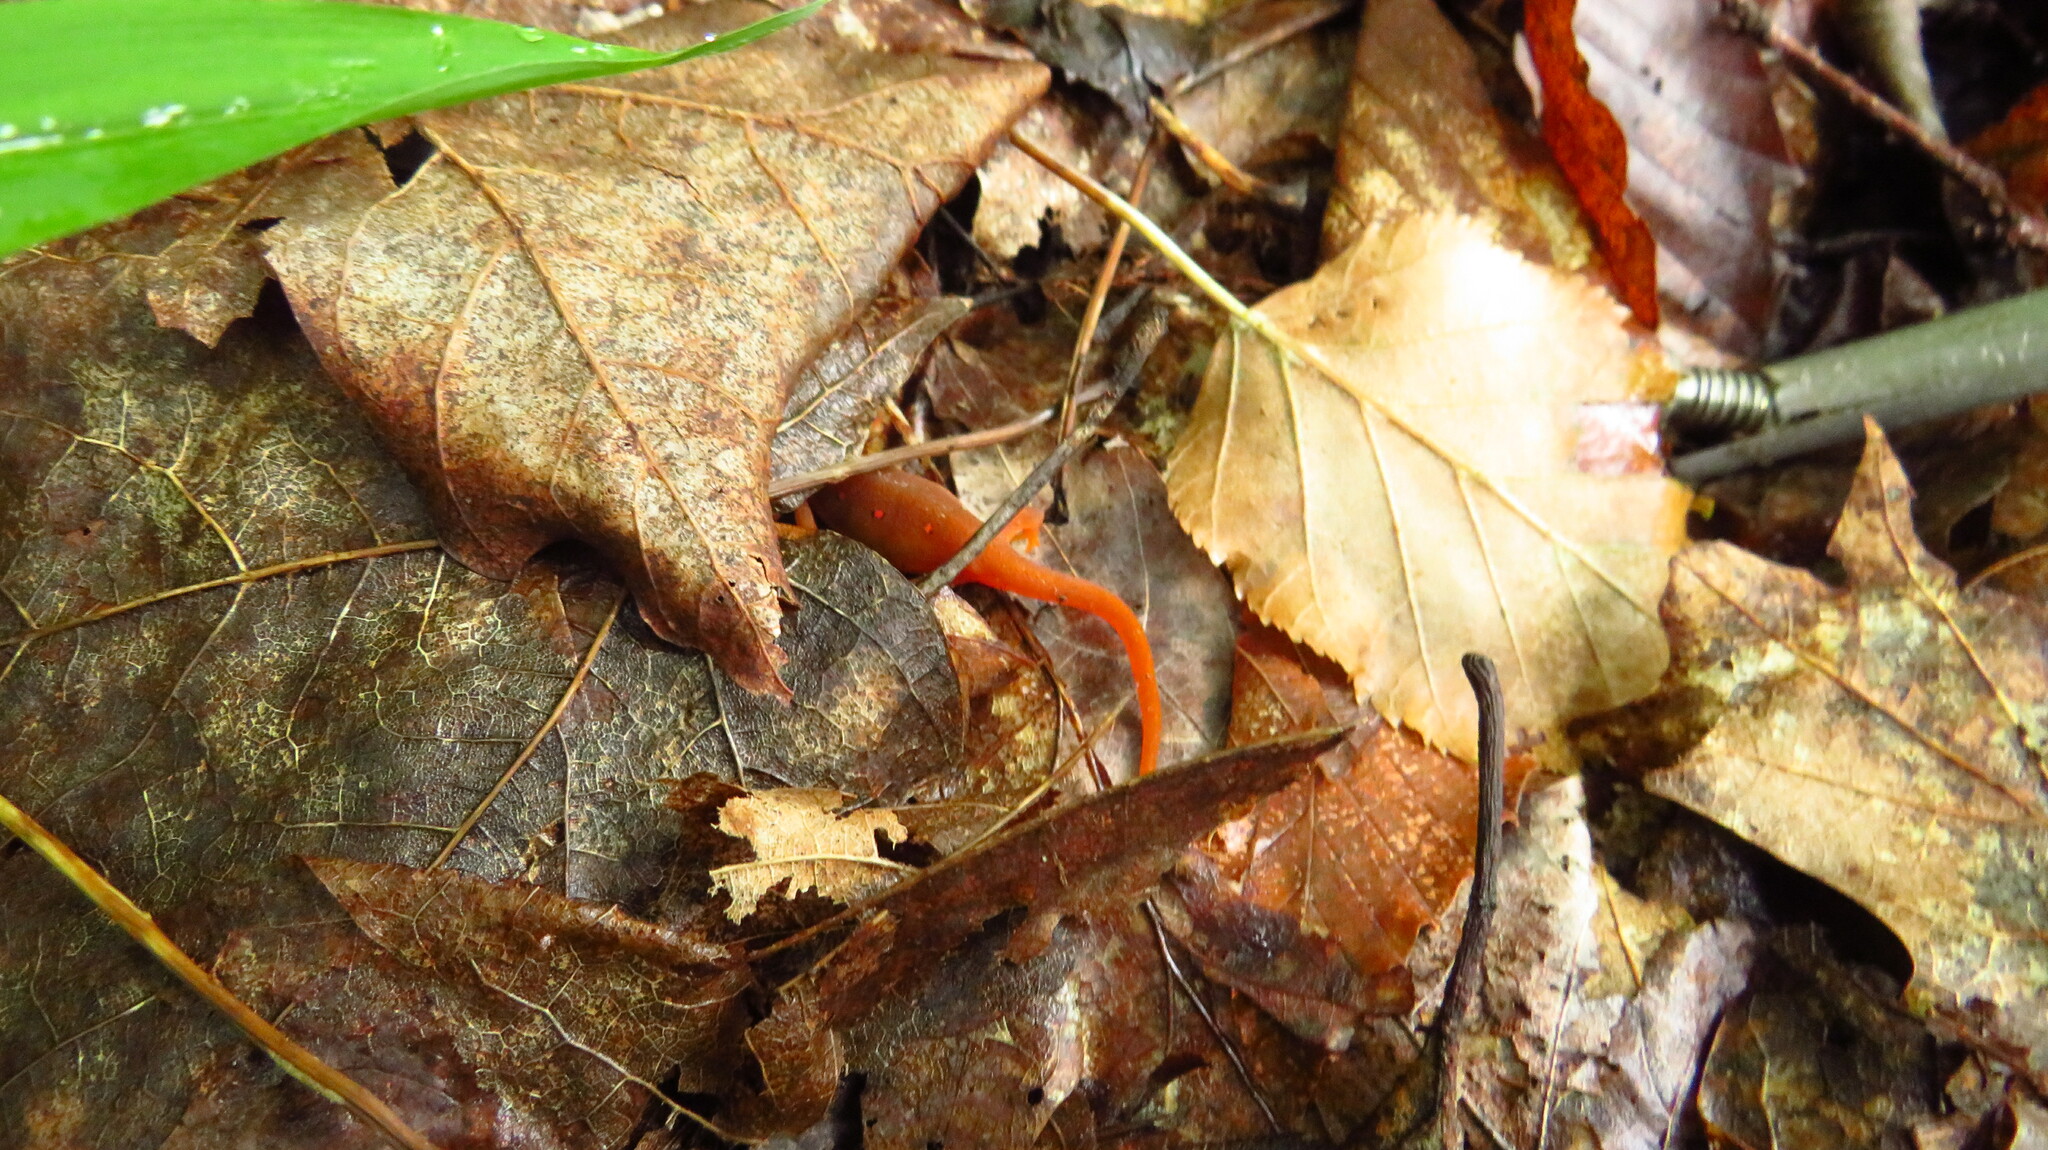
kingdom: Animalia
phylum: Chordata
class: Amphibia
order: Caudata
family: Salamandridae
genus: Notophthalmus
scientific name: Notophthalmus viridescens
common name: Eastern newt
